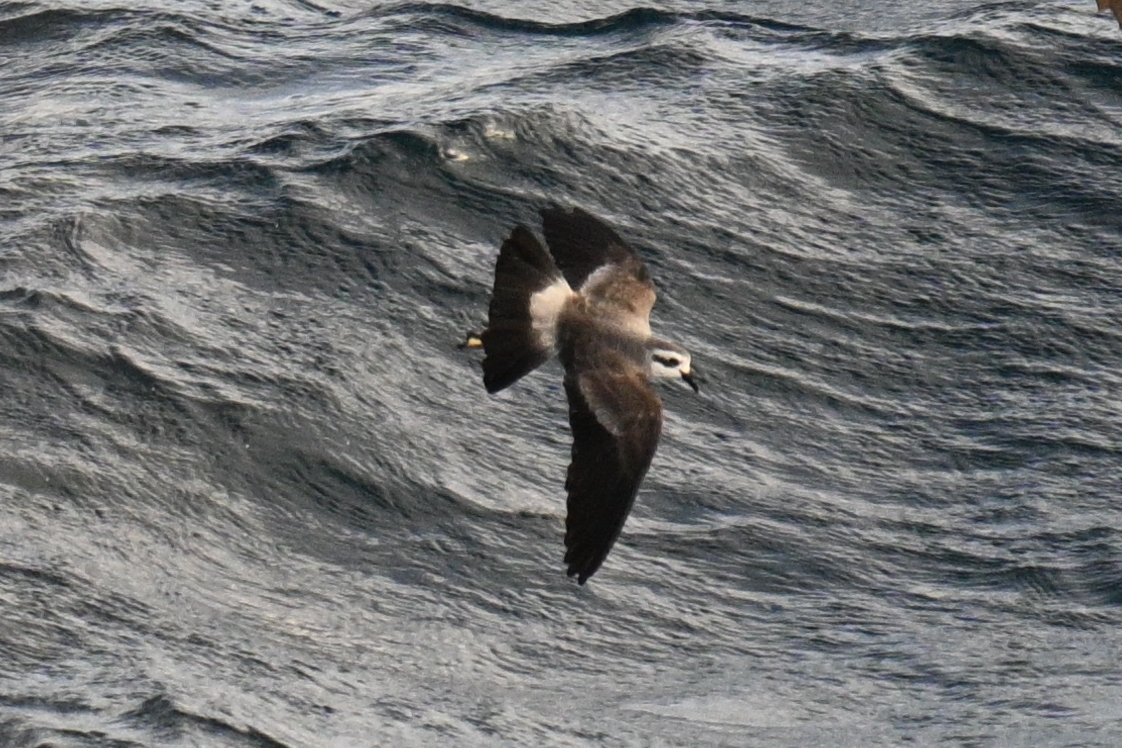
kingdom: Animalia
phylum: Chordata
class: Aves
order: Procellariiformes
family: Hydrobatidae
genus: Pelagodroma
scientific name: Pelagodroma marina
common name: White-faced storm-petrel
